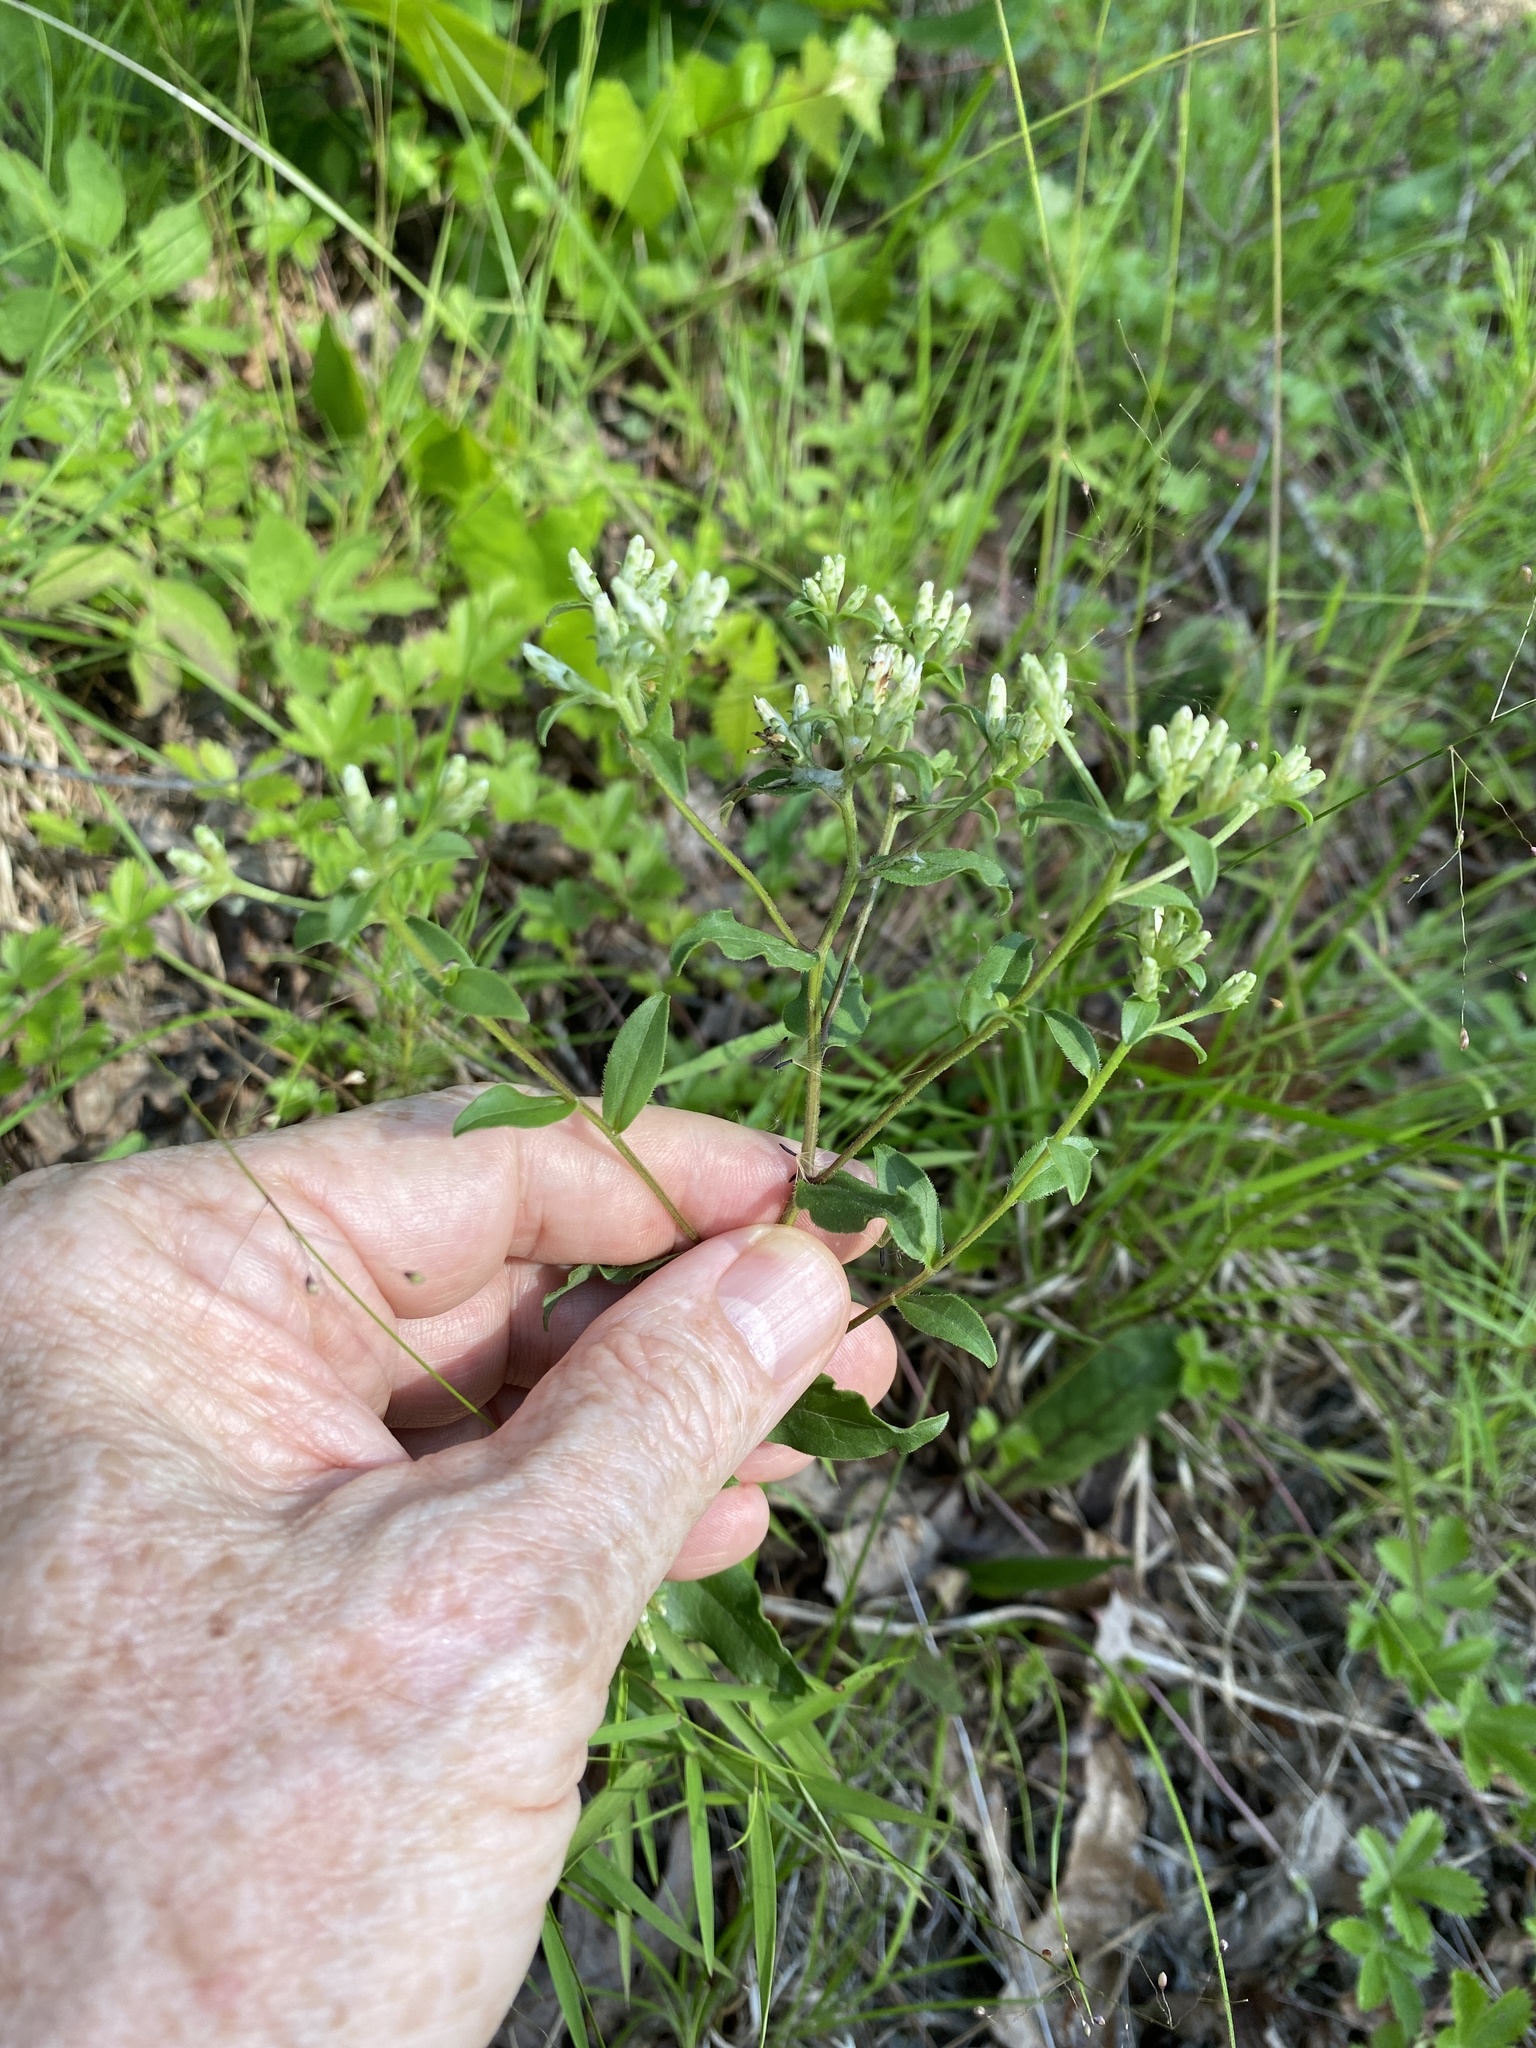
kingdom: Plantae
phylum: Tracheophyta
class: Magnoliopsida
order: Asterales
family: Asteraceae
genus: Sericocarpus
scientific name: Sericocarpus asteroides
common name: Toothed white-top aster
